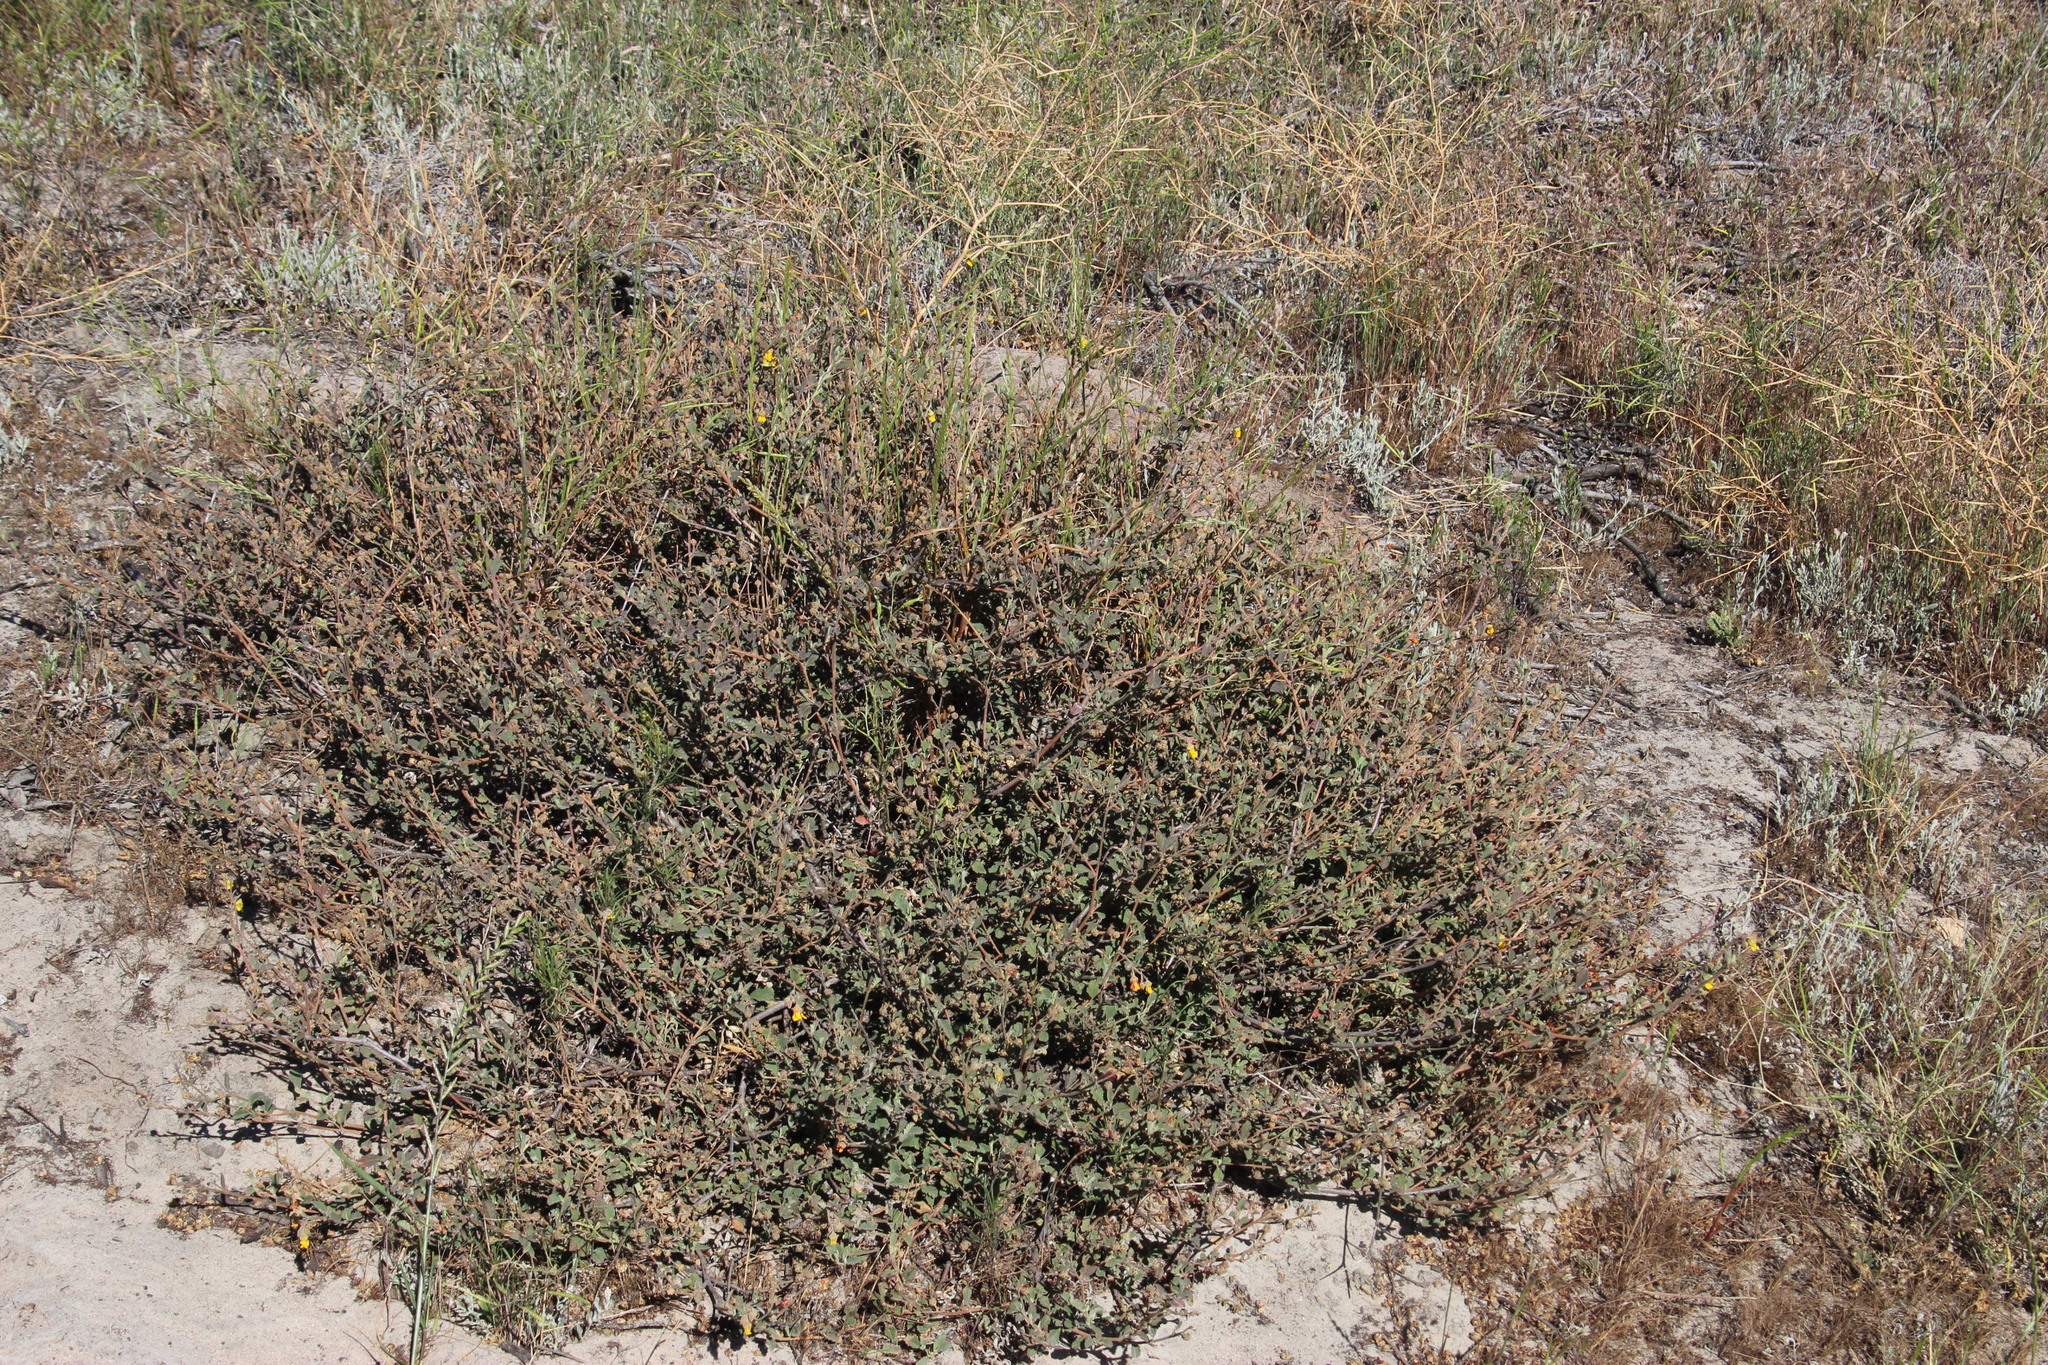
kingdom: Plantae
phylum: Tracheophyta
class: Magnoliopsida
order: Malvales
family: Malvaceae
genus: Hermannia
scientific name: Hermannia multiflora
